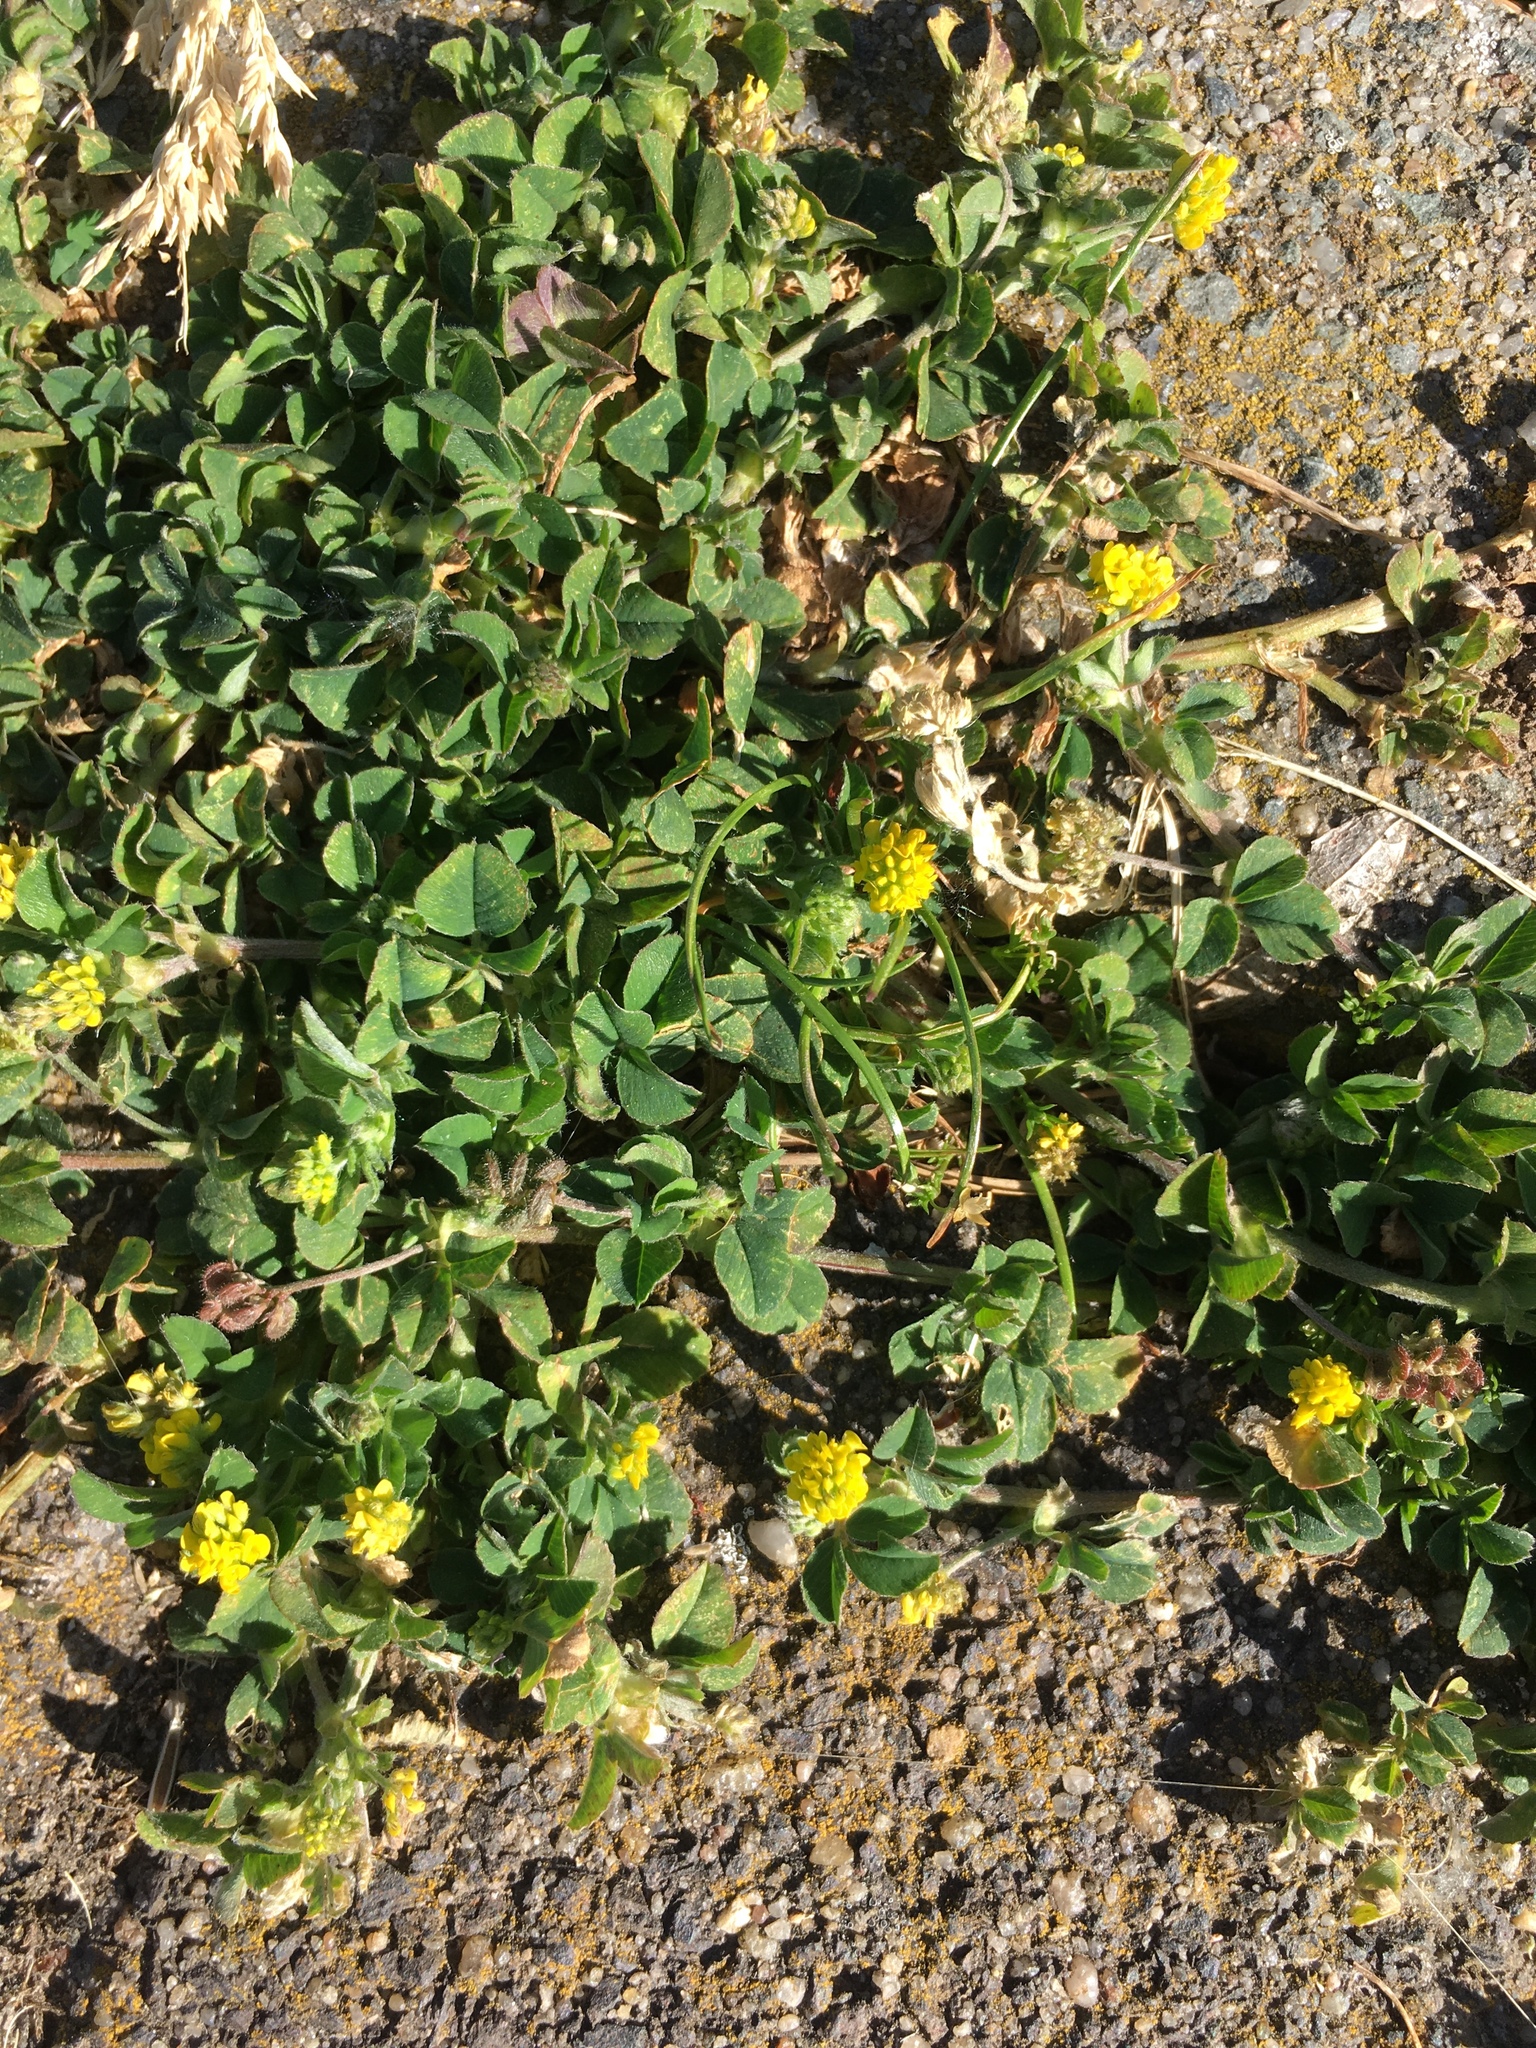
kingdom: Plantae
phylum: Tracheophyta
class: Magnoliopsida
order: Fabales
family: Fabaceae
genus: Medicago
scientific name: Medicago lupulina
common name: Black medick
